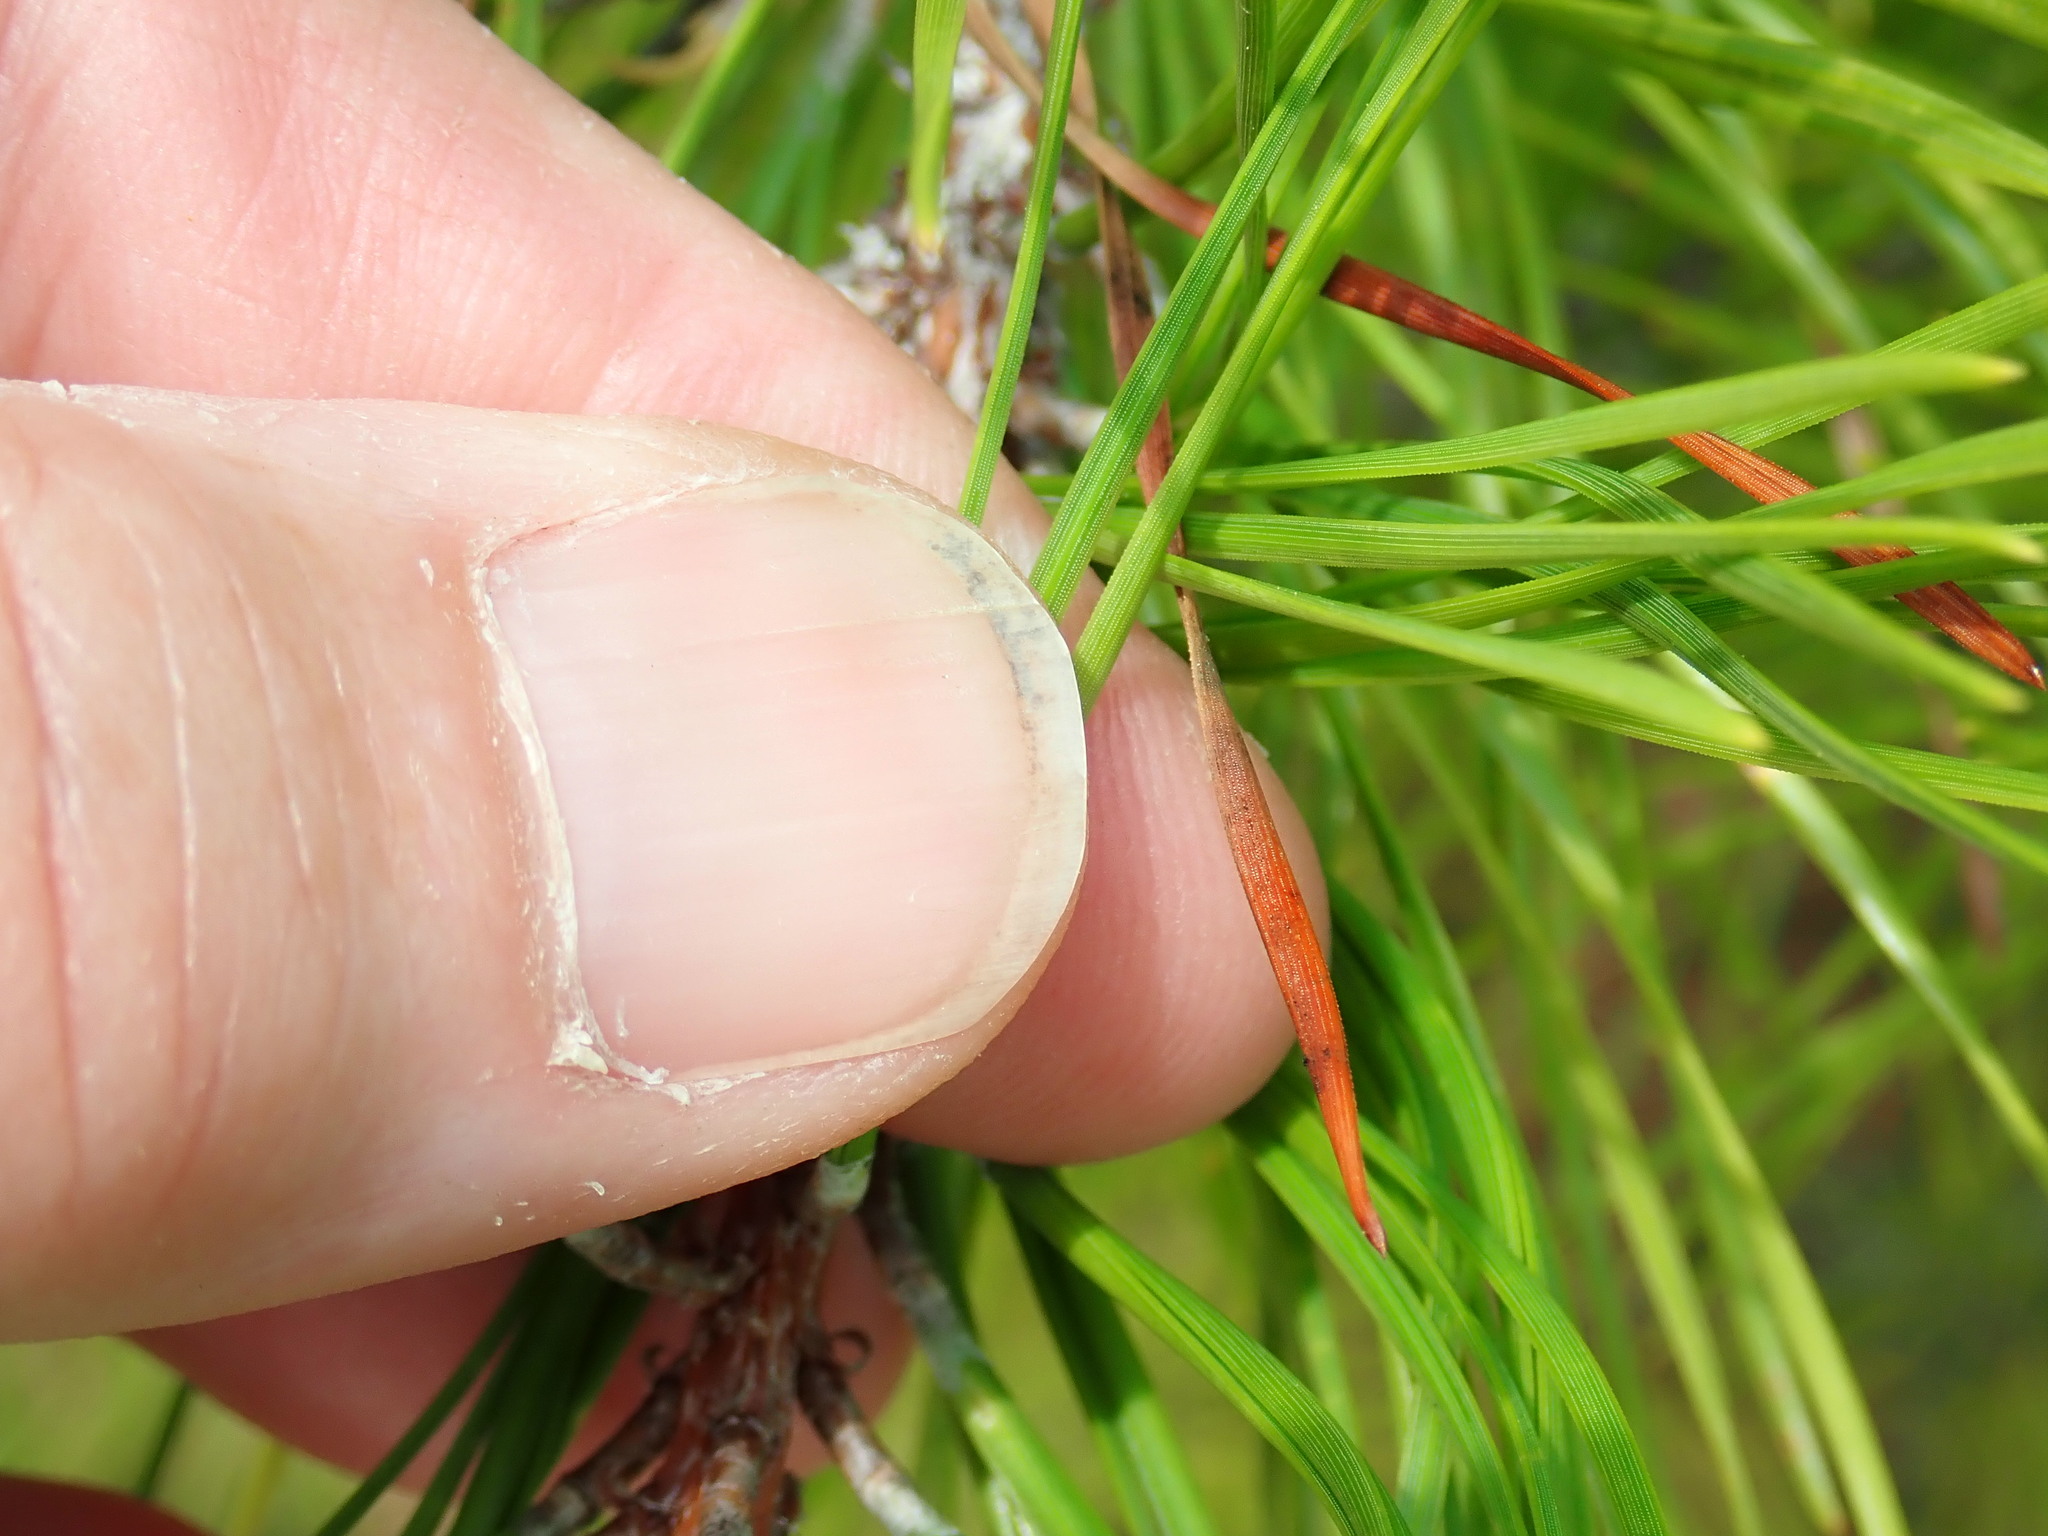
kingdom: Plantae
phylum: Tracheophyta
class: Pinopsida
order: Pinales
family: Pinaceae
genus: Pinus
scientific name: Pinus rigida
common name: Pitch pine
